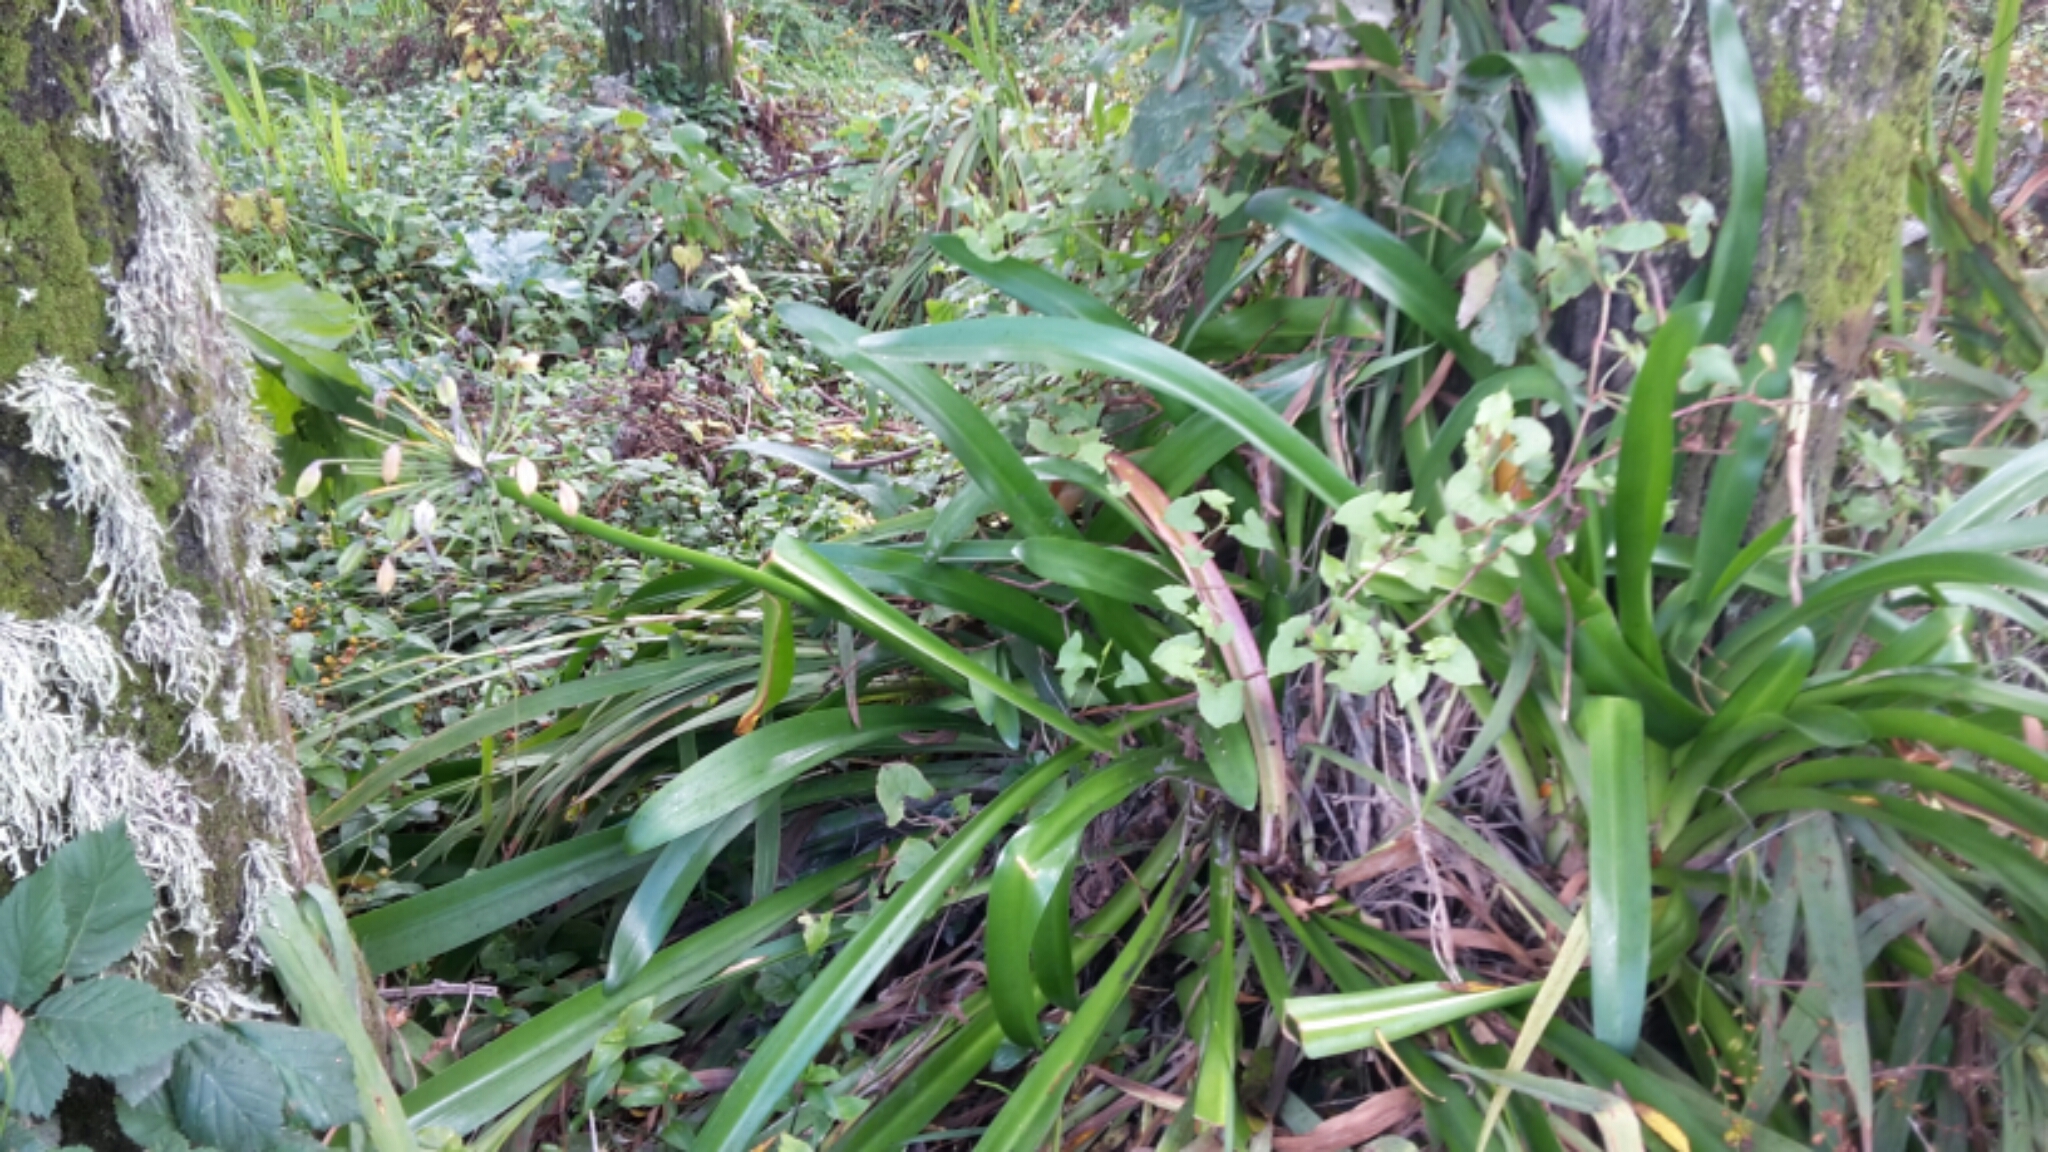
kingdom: Plantae
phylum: Tracheophyta
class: Liliopsida
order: Asparagales
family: Amaryllidaceae
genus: Agapanthus
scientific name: Agapanthus praecox
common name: African-lily
